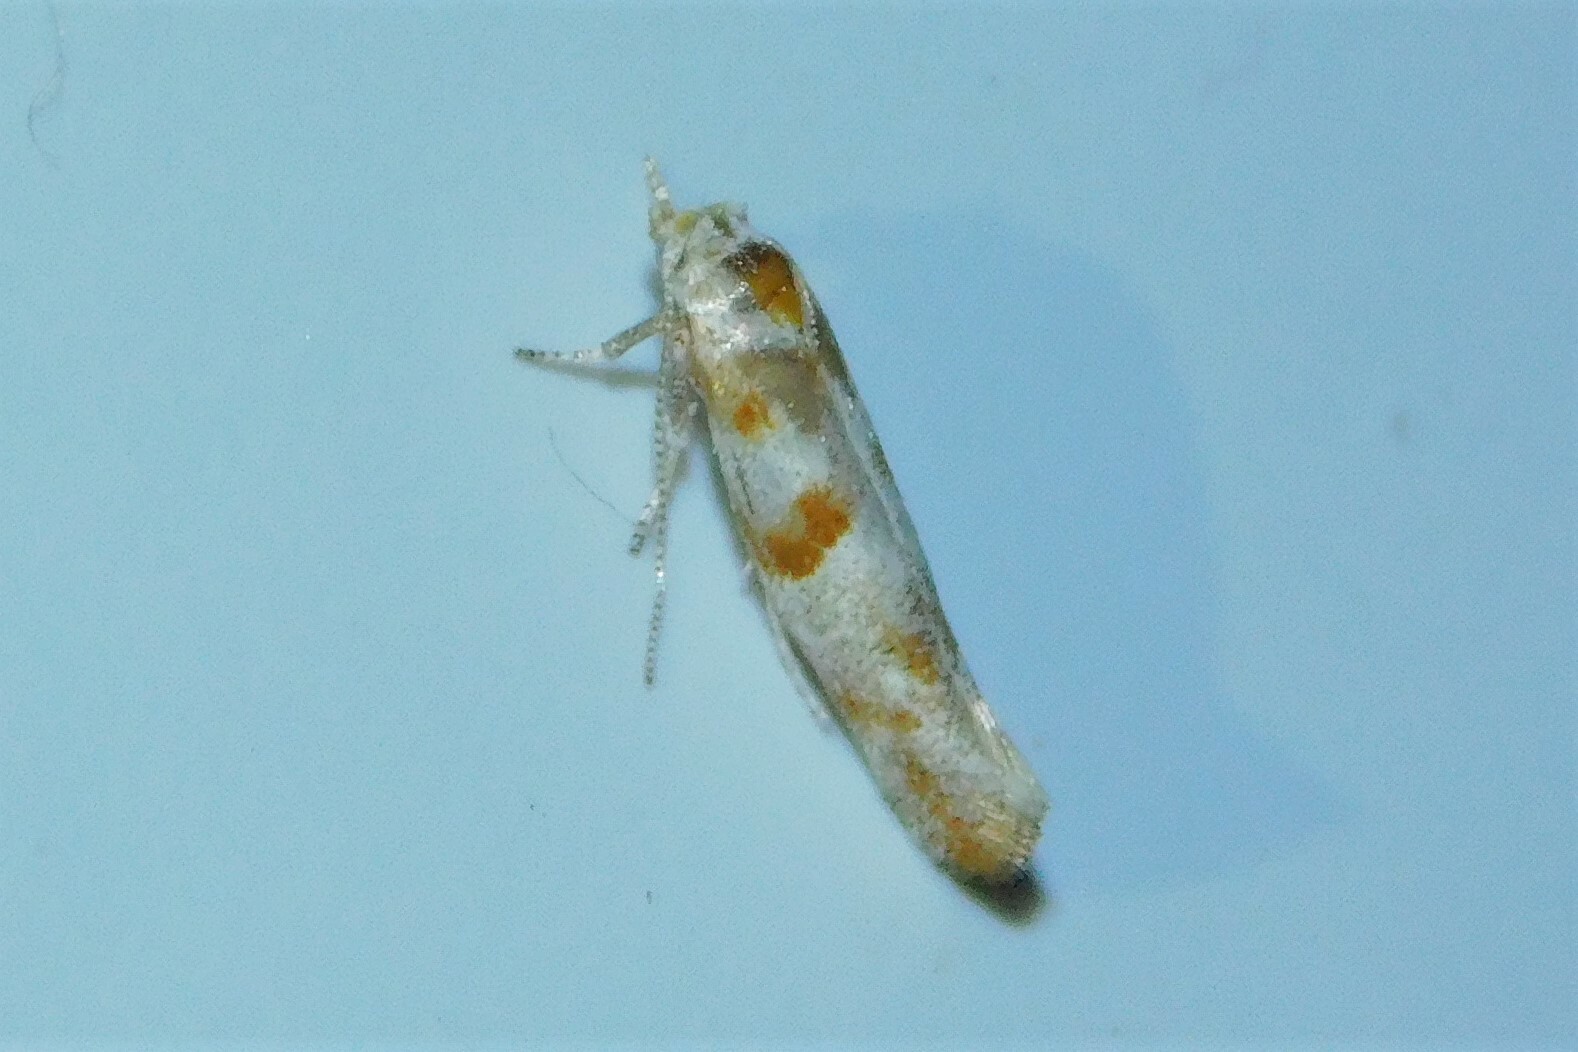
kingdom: Animalia
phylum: Arthropoda
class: Insecta
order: Lepidoptera
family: Yponomeutidae
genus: Cedestis
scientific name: Cedestis gysseleniella
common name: Gold pine ermel
